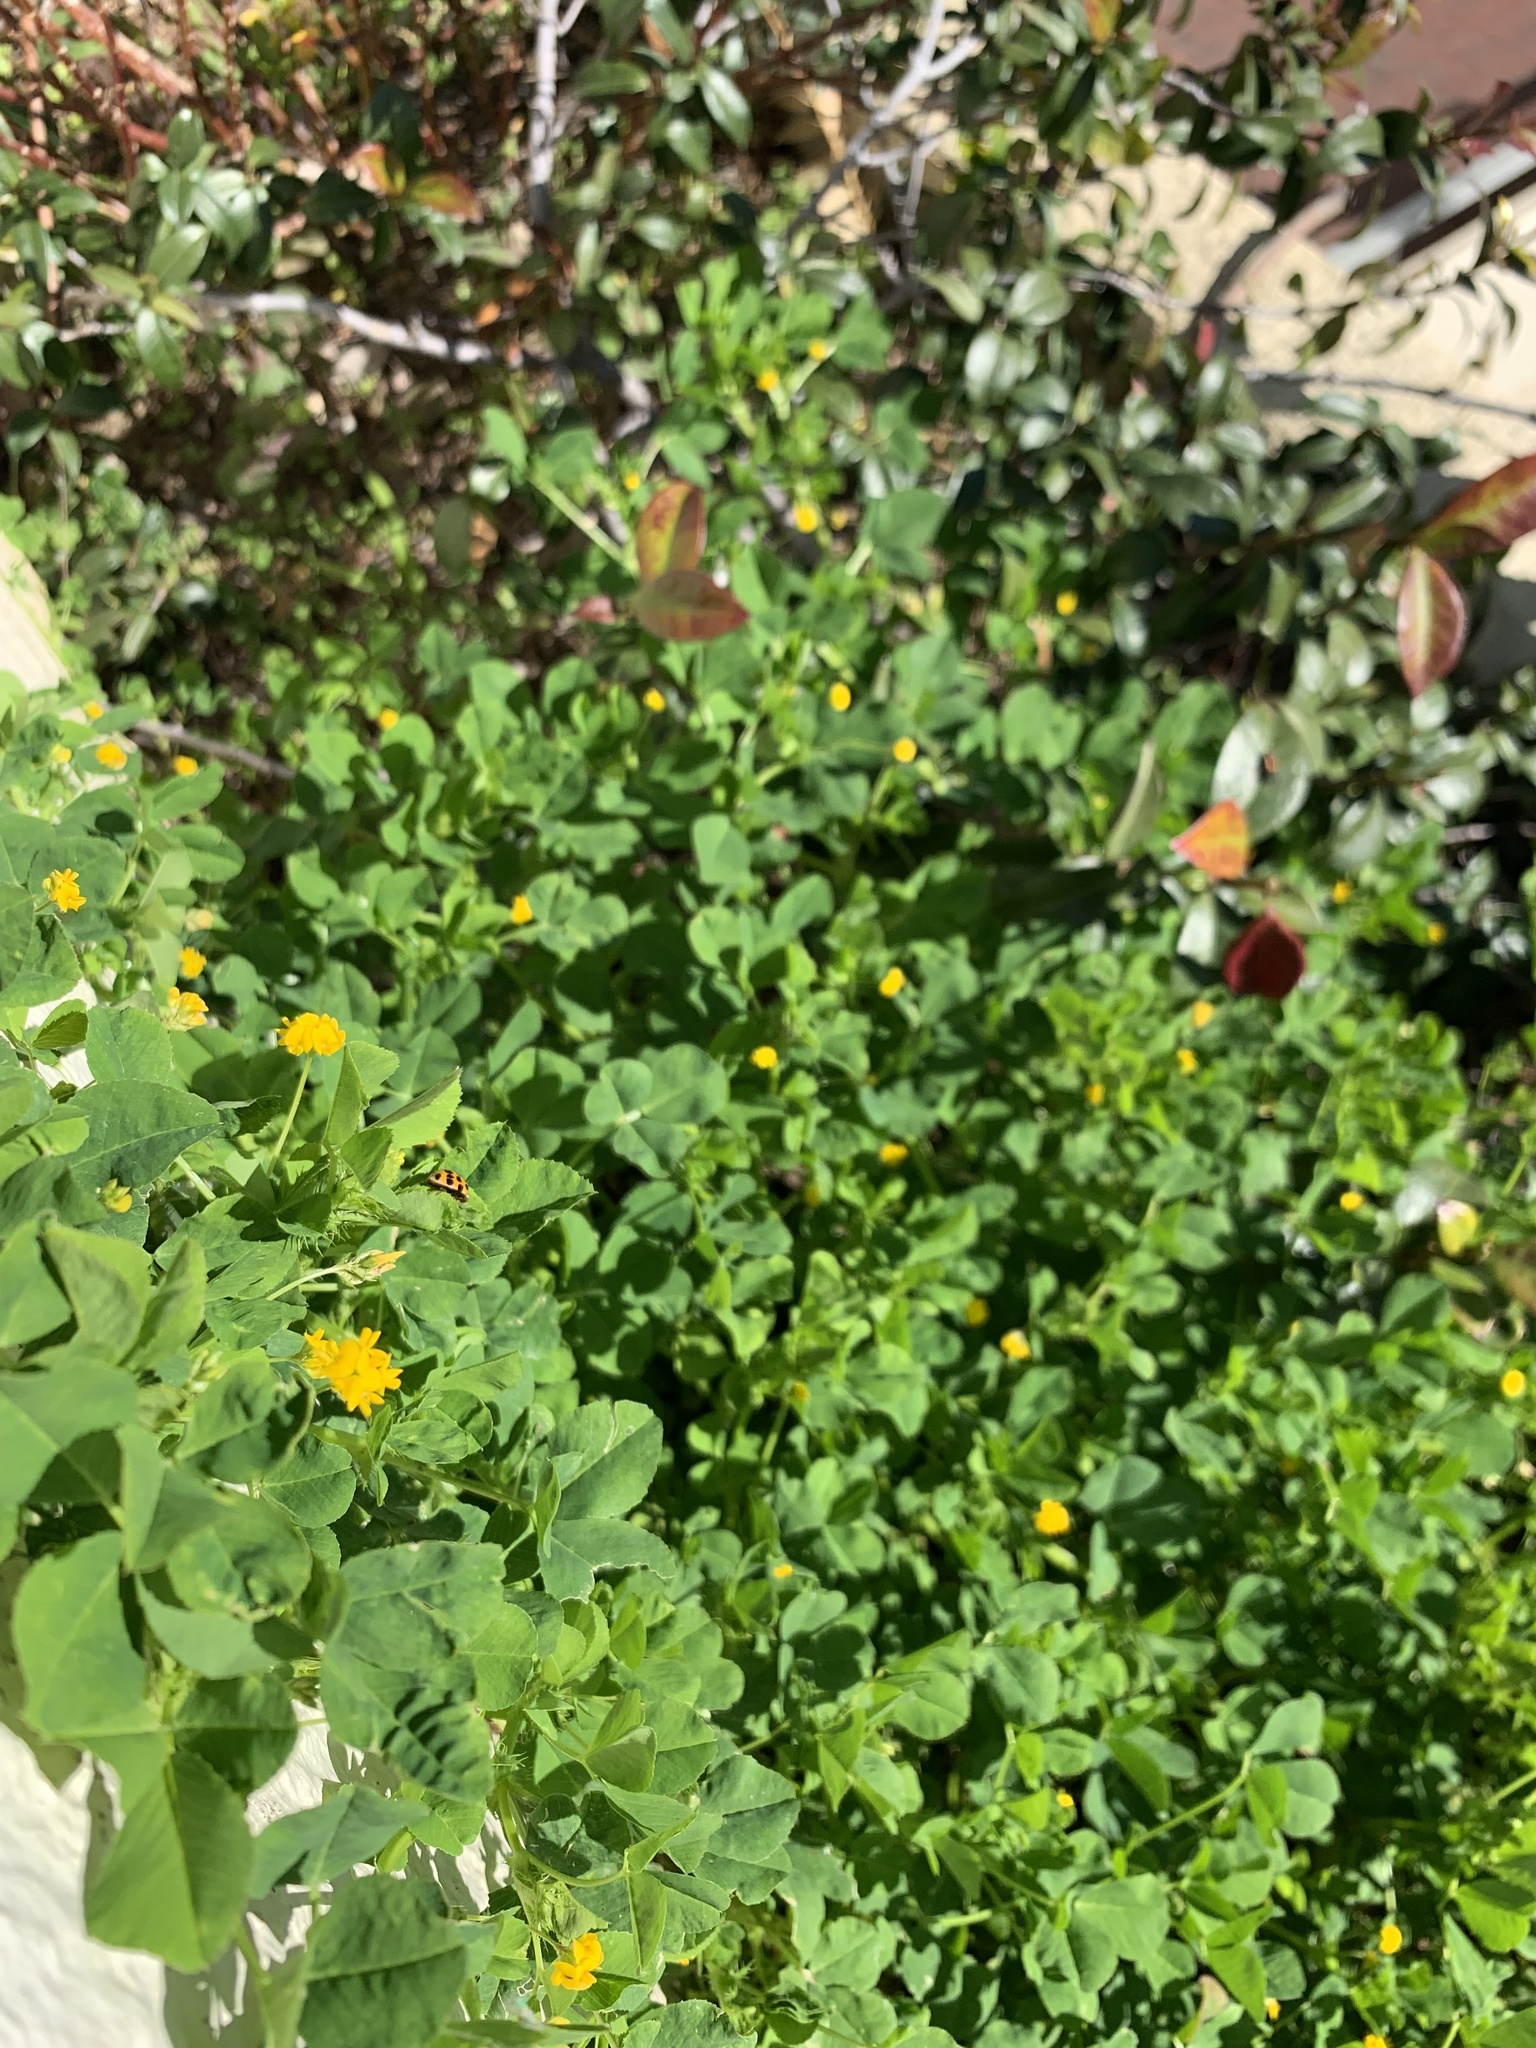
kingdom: Plantae
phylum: Tracheophyta
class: Magnoliopsida
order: Fabales
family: Fabaceae
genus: Medicago
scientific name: Medicago polymorpha
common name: Burclover
